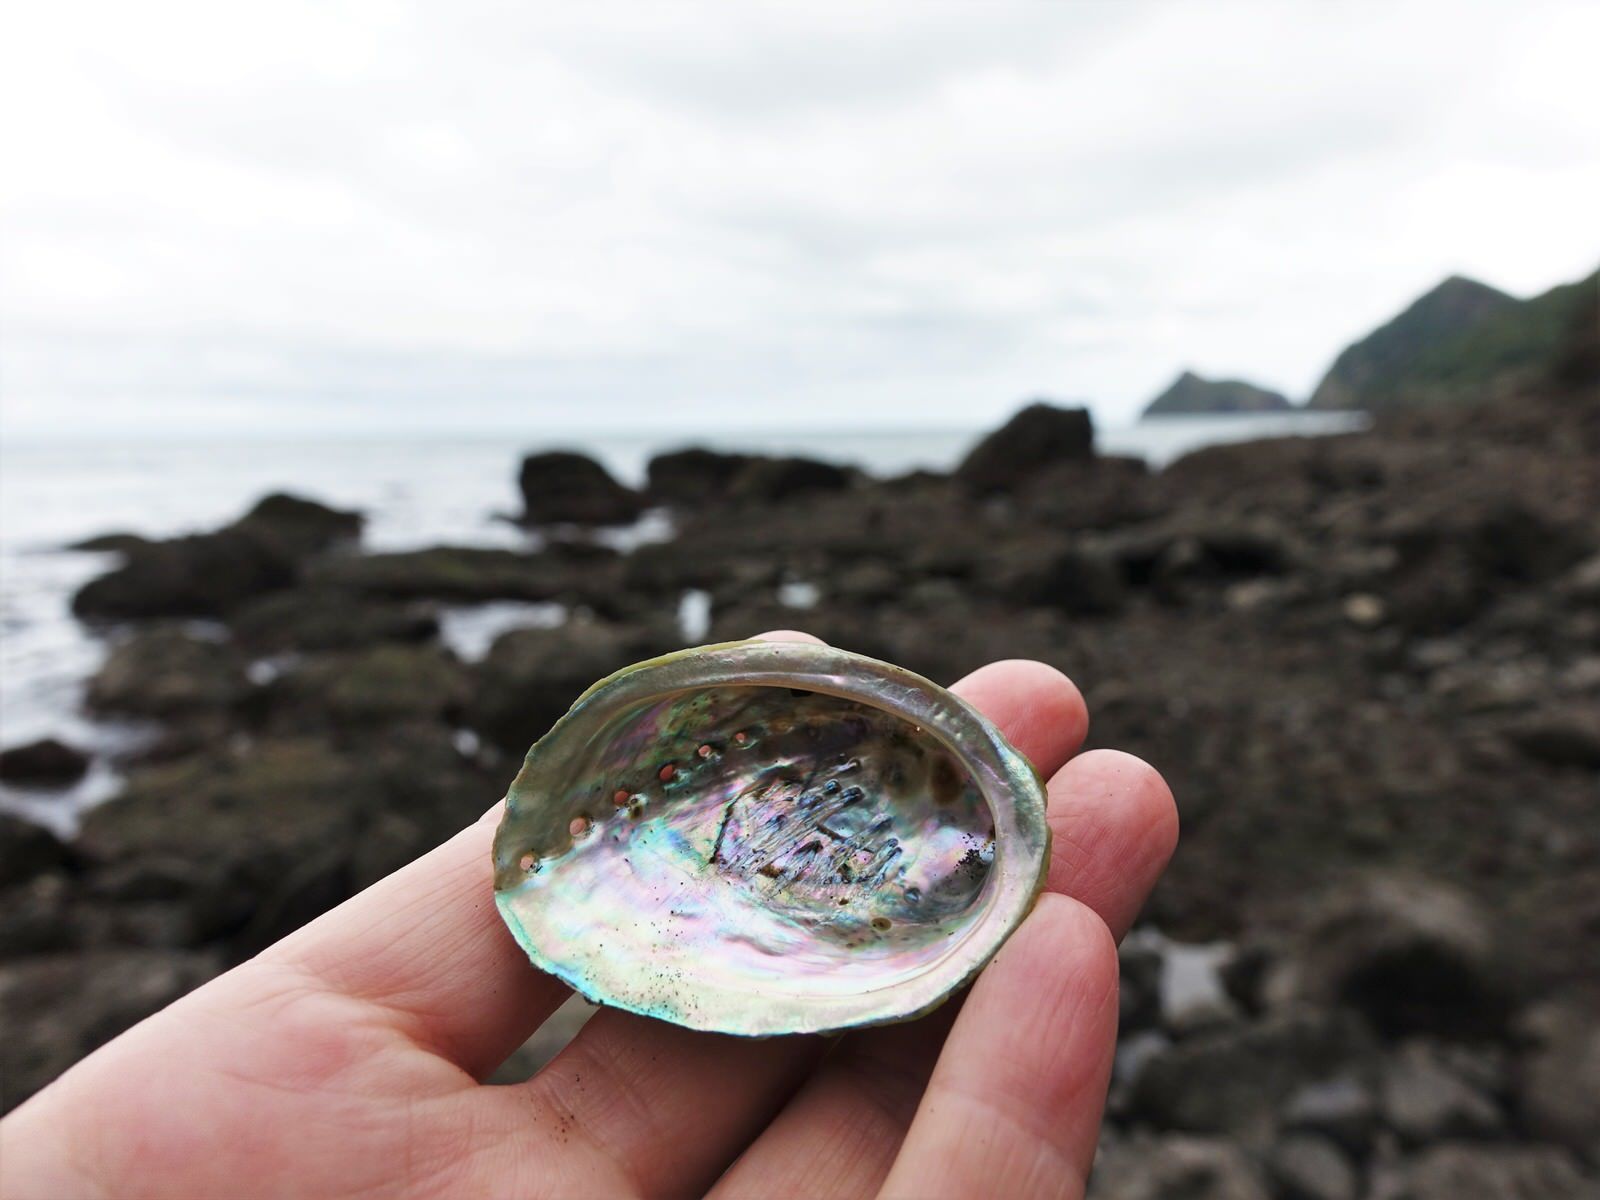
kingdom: Animalia
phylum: Mollusca
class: Gastropoda
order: Lepetellida
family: Haliotidae
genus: Haliotis
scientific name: Haliotis iris
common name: Abalone
